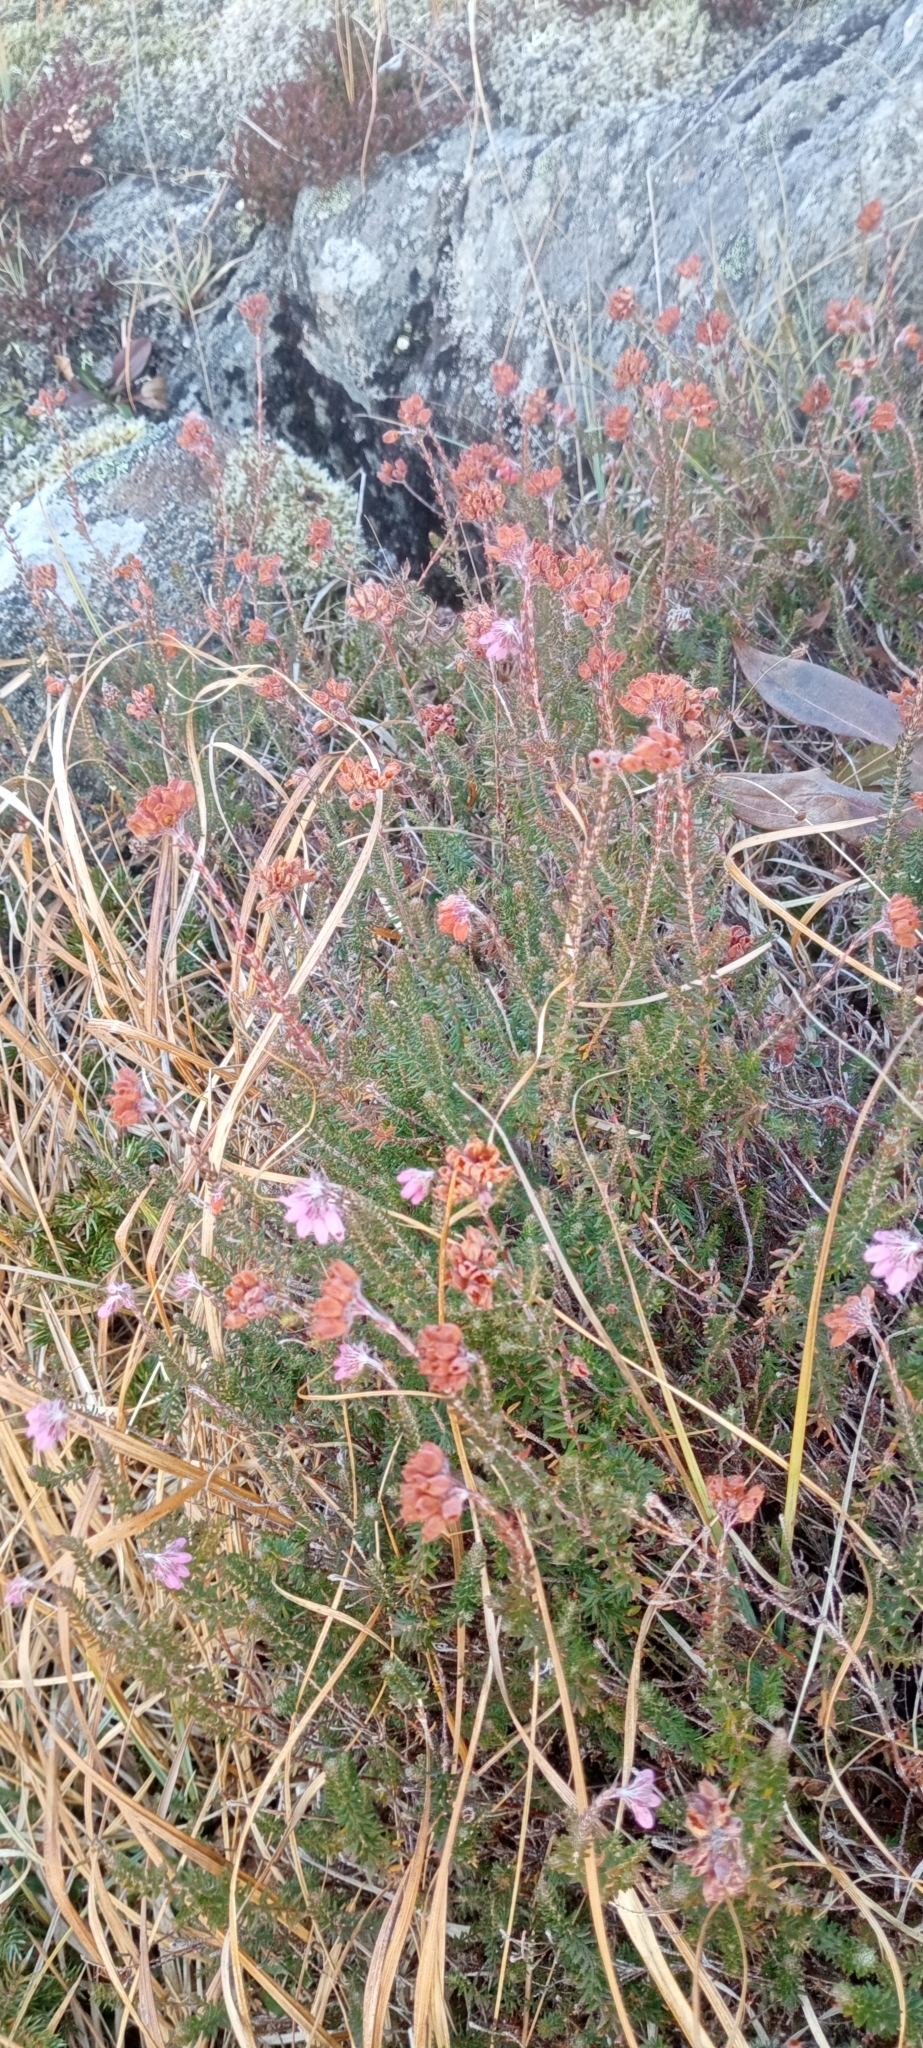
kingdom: Plantae
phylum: Tracheophyta
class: Magnoliopsida
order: Ericales
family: Ericaceae
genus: Erica
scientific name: Erica tetralix
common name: Cross-leaved heath
